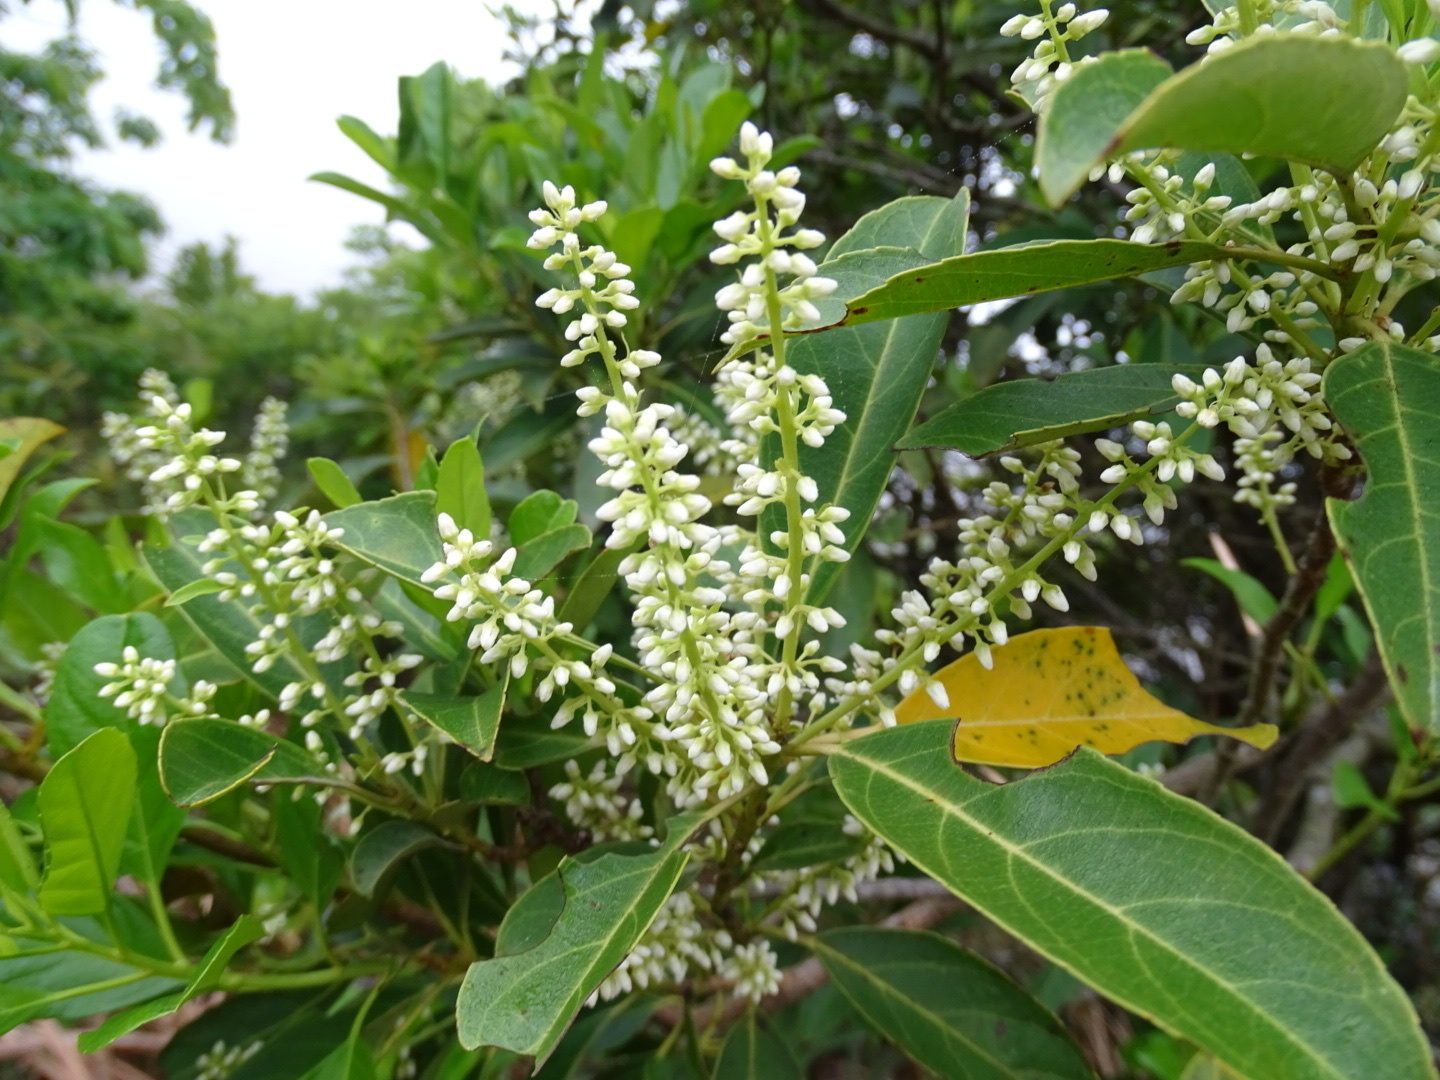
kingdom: Plantae
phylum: Tracheophyta
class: Magnoliopsida
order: Saxifragales
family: Iteaceae
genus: Itea
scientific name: Itea chinensis
